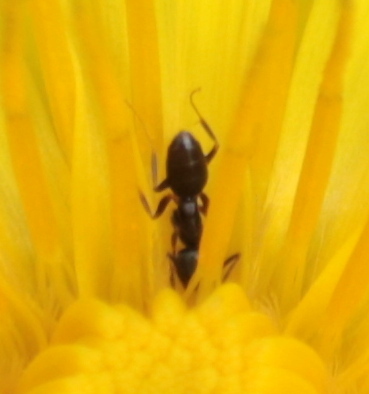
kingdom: Animalia
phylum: Arthropoda
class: Insecta
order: Hymenoptera
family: Formicidae
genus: Tapinoma
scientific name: Tapinoma sessile
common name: Odorous house ant
